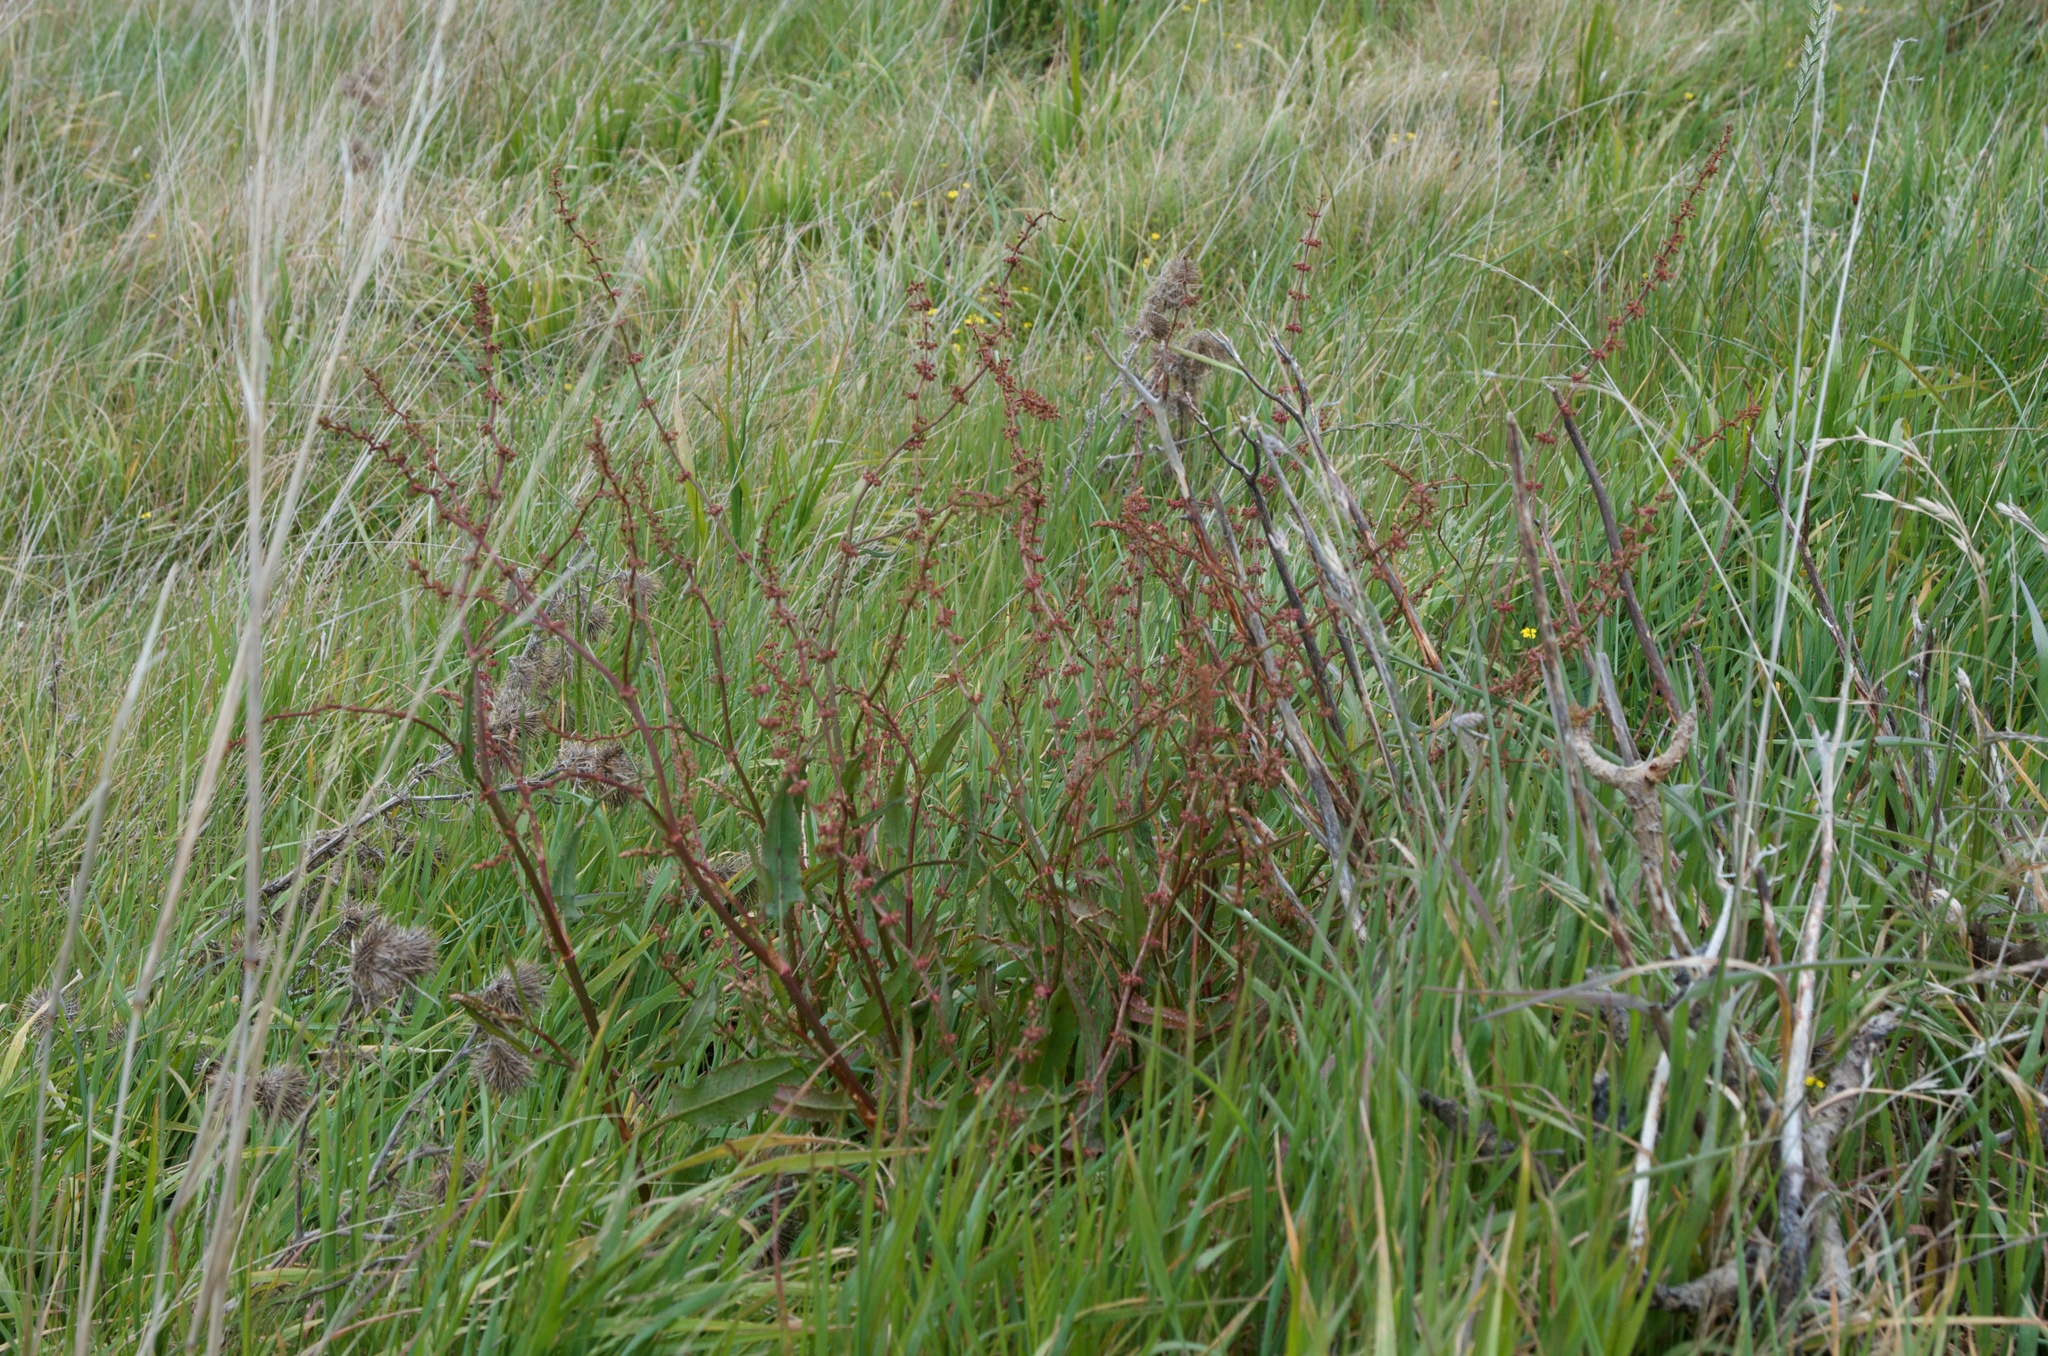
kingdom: Plantae
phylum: Tracheophyta
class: Magnoliopsida
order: Caryophyllales
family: Polygonaceae
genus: Rumex
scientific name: Rumex crispus
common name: Curled dock
